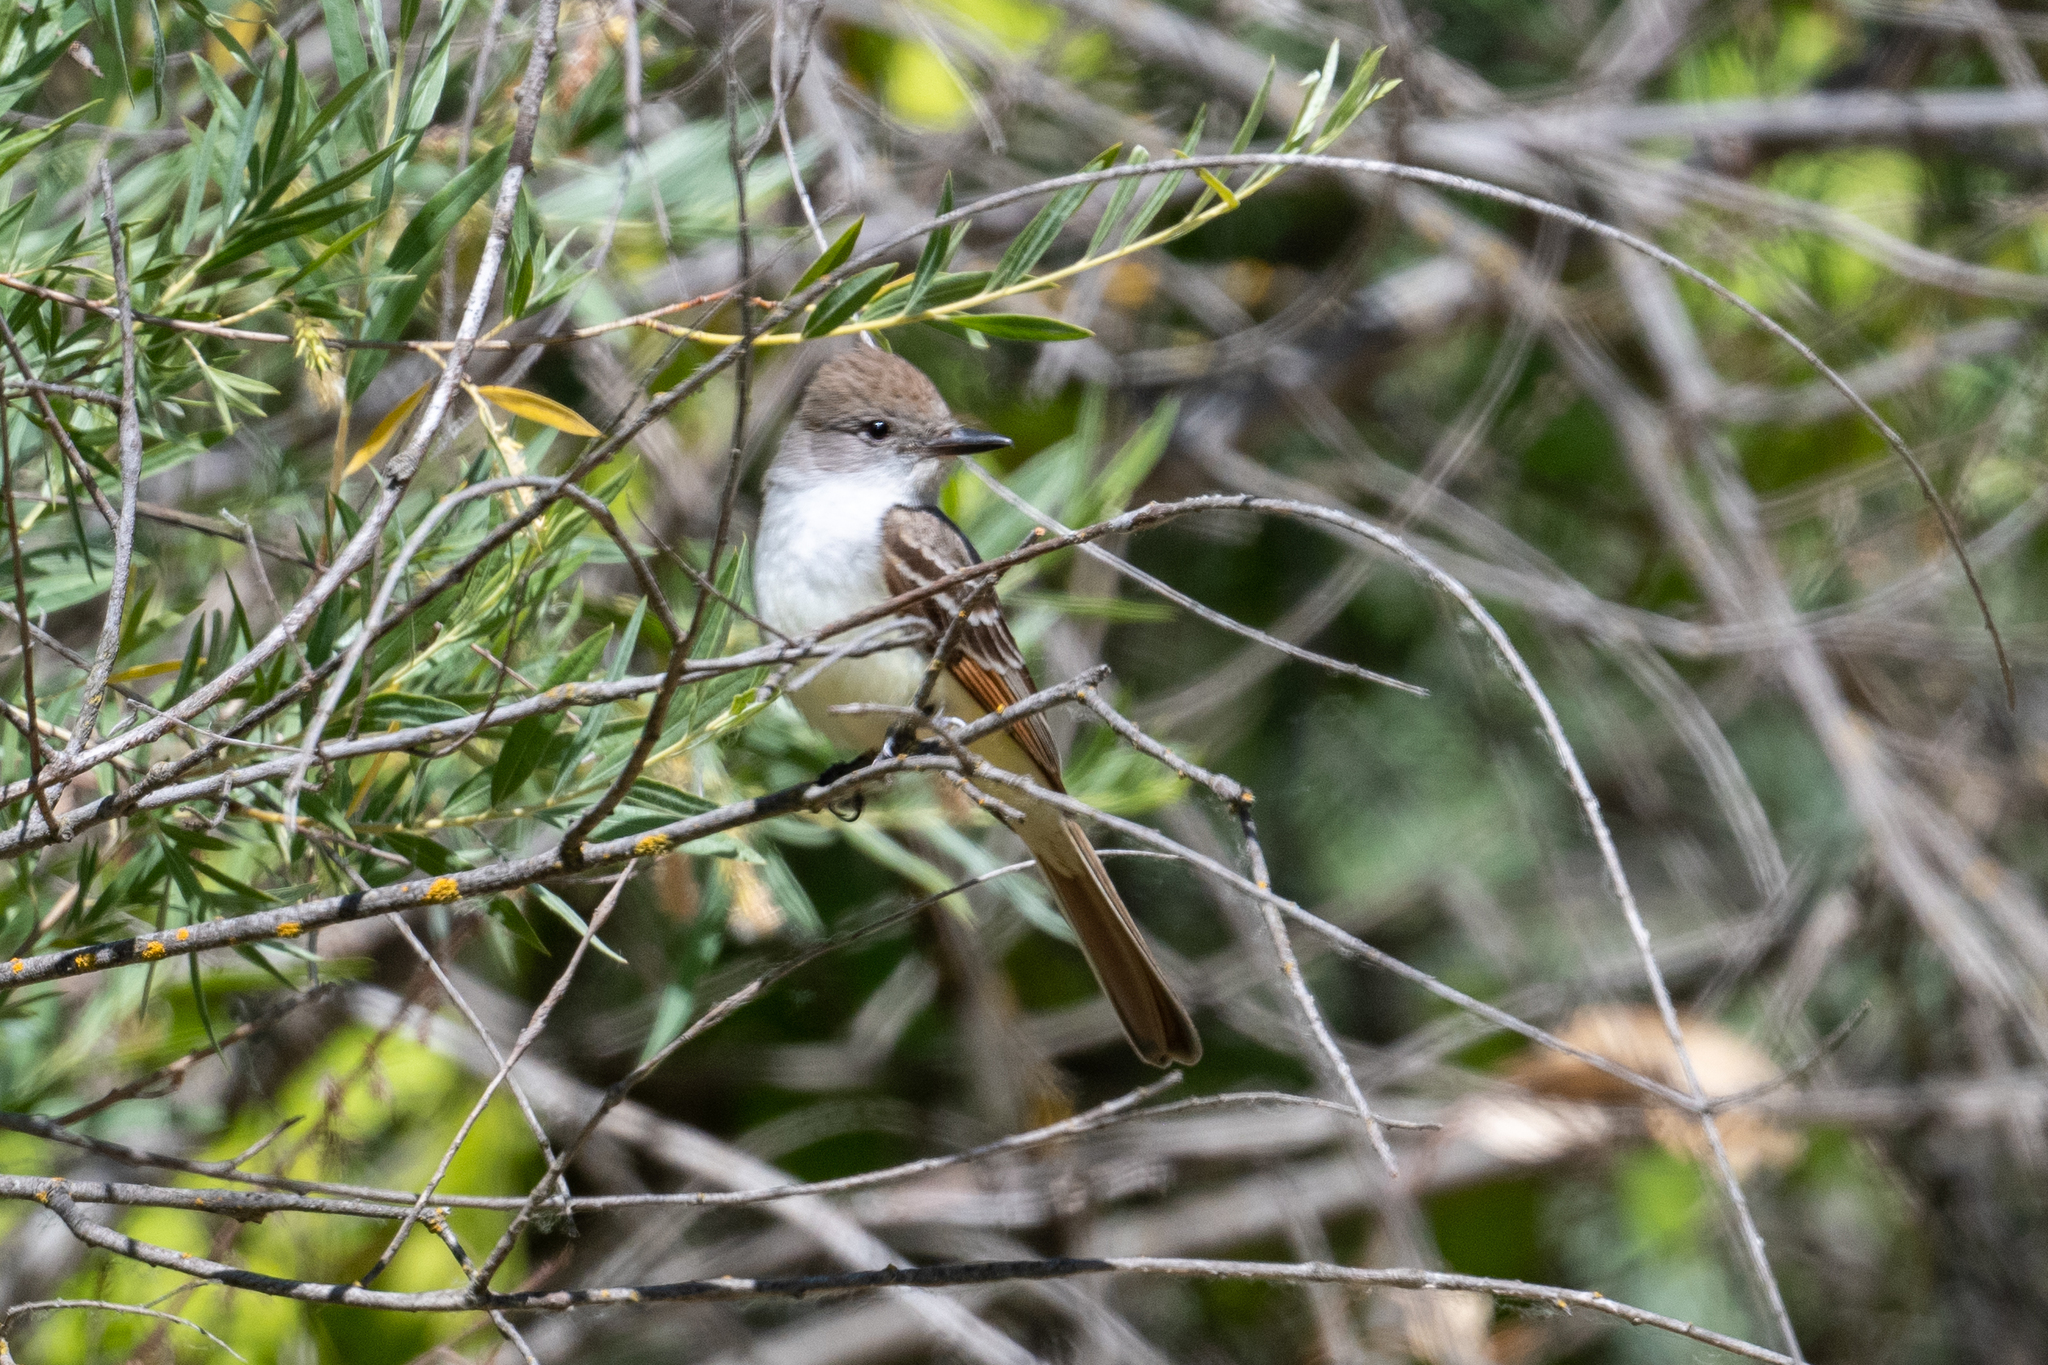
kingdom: Animalia
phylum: Chordata
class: Aves
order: Passeriformes
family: Tyrannidae
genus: Myiarchus
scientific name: Myiarchus cinerascens
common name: Ash-throated flycatcher
